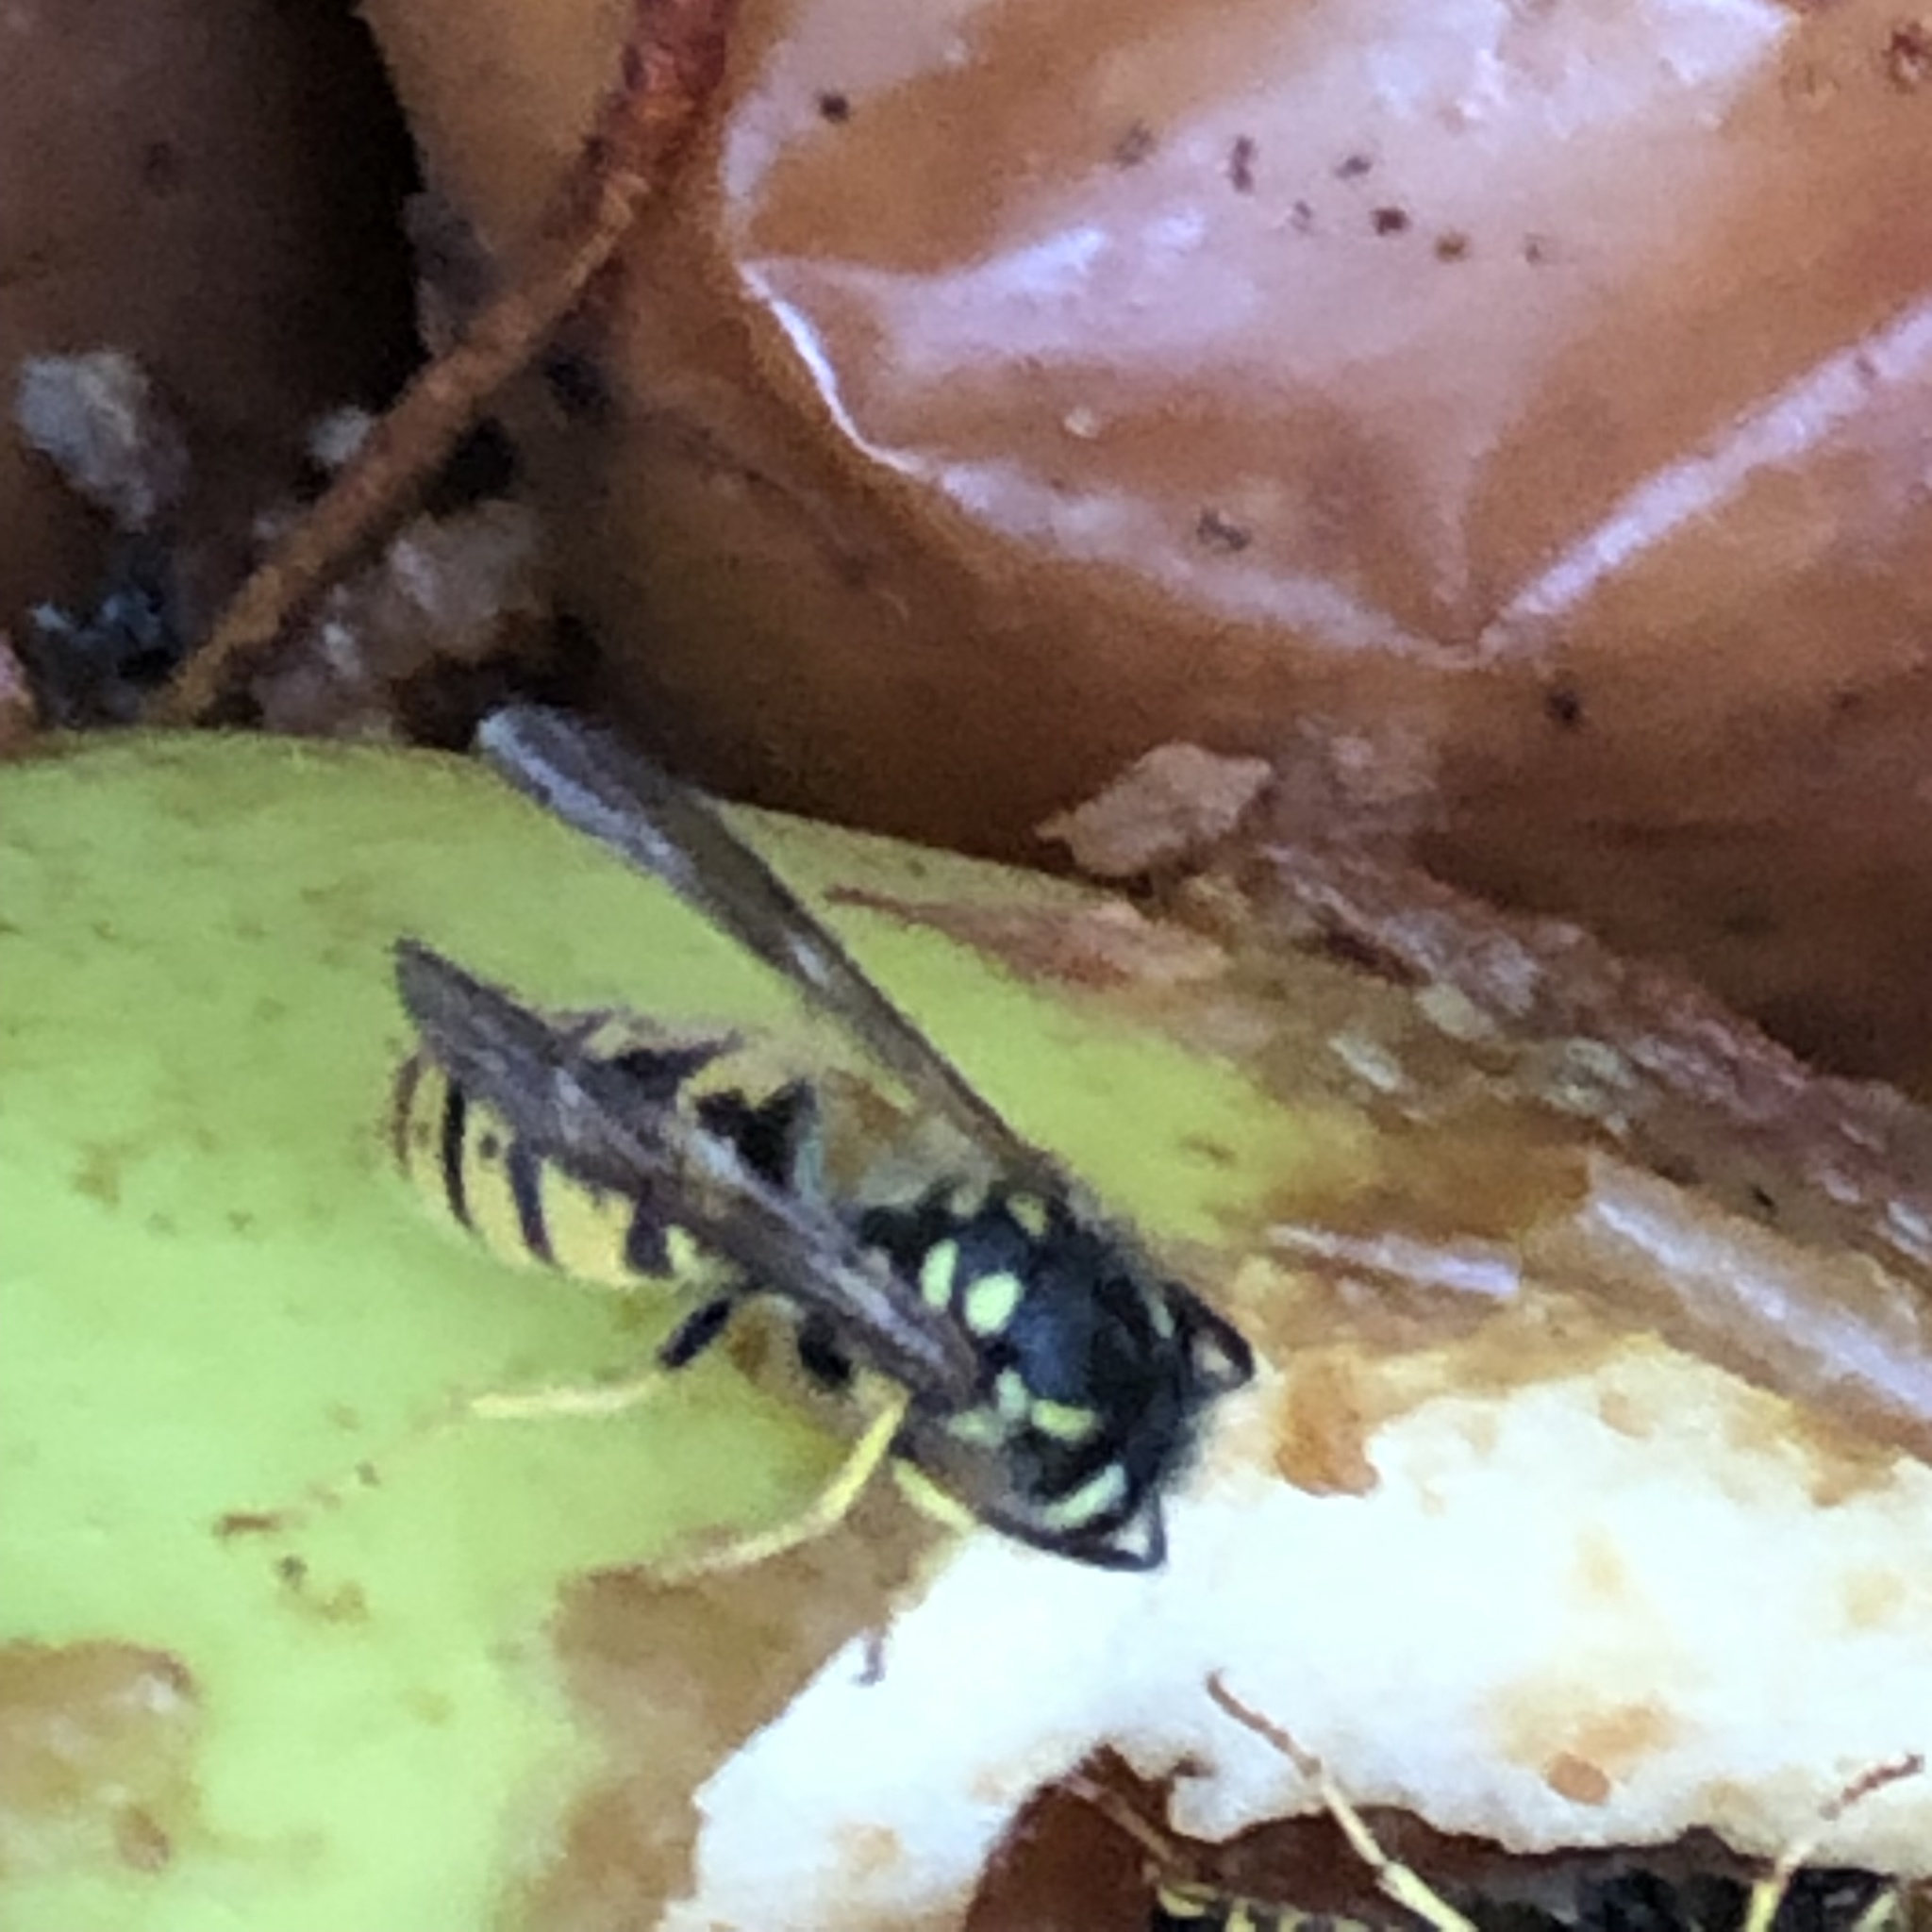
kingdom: Animalia
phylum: Arthropoda
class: Insecta
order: Hymenoptera
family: Vespidae
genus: Vespula
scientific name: Vespula germanica
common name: German wasp
